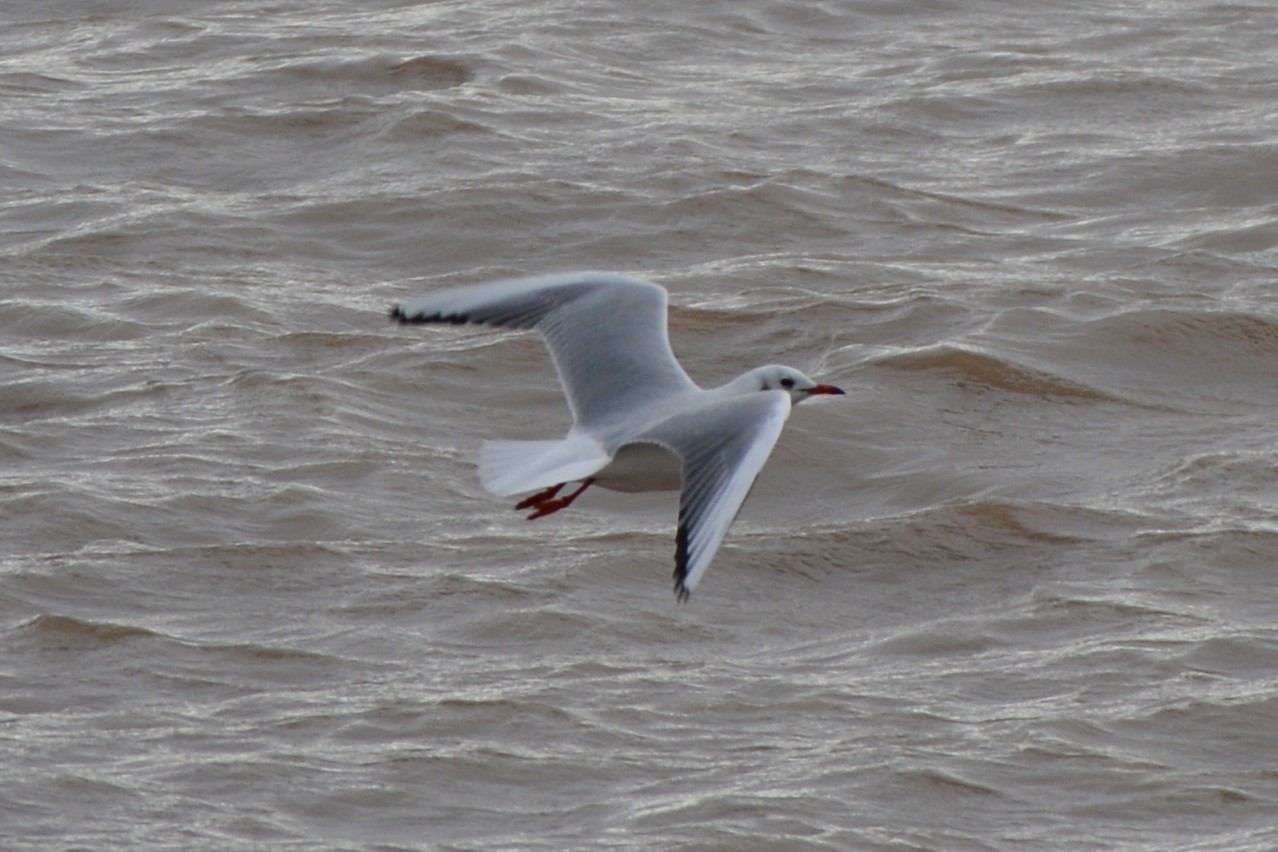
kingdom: Animalia
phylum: Chordata
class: Aves
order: Charadriiformes
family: Laridae
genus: Chroicocephalus
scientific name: Chroicocephalus ridibundus
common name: Black-headed gull
